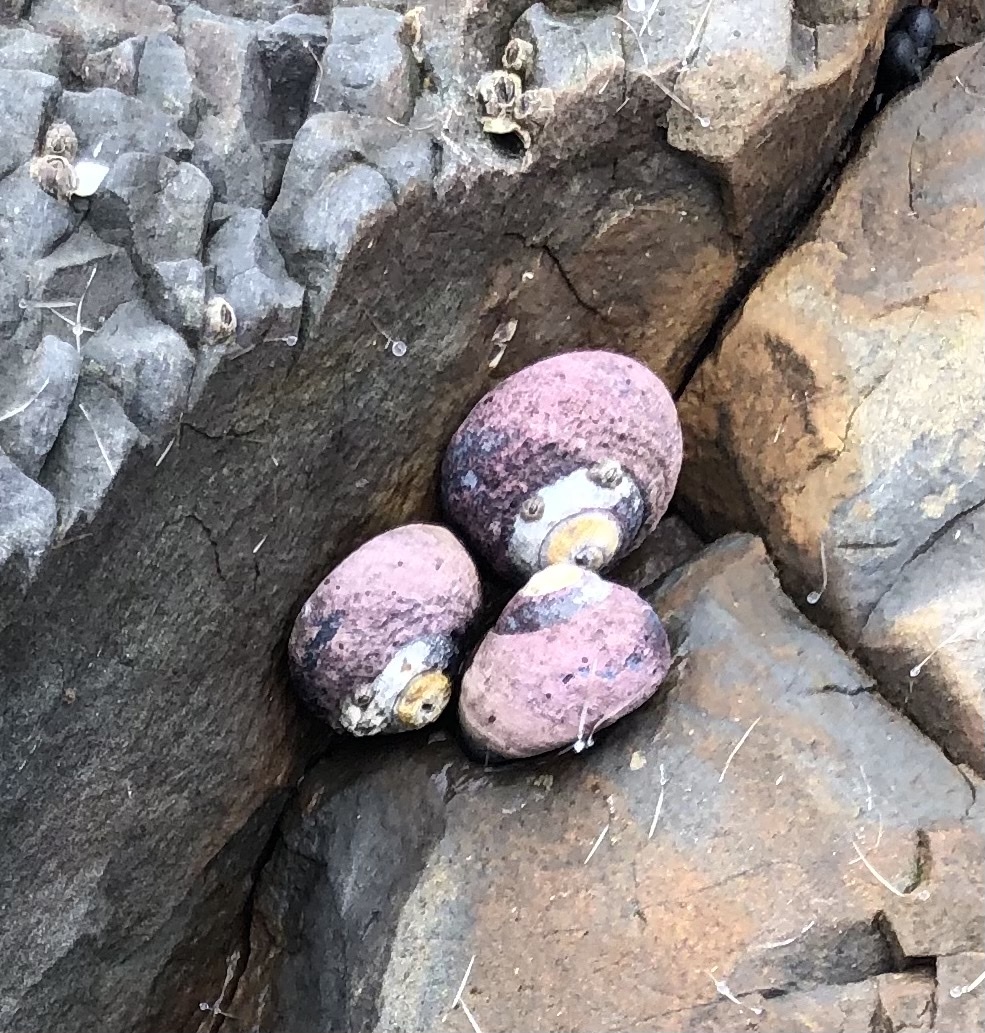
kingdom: Animalia
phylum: Mollusca
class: Gastropoda
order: Trochida
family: Tegulidae
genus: Tegula
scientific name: Tegula funebralis
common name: Black tegula
